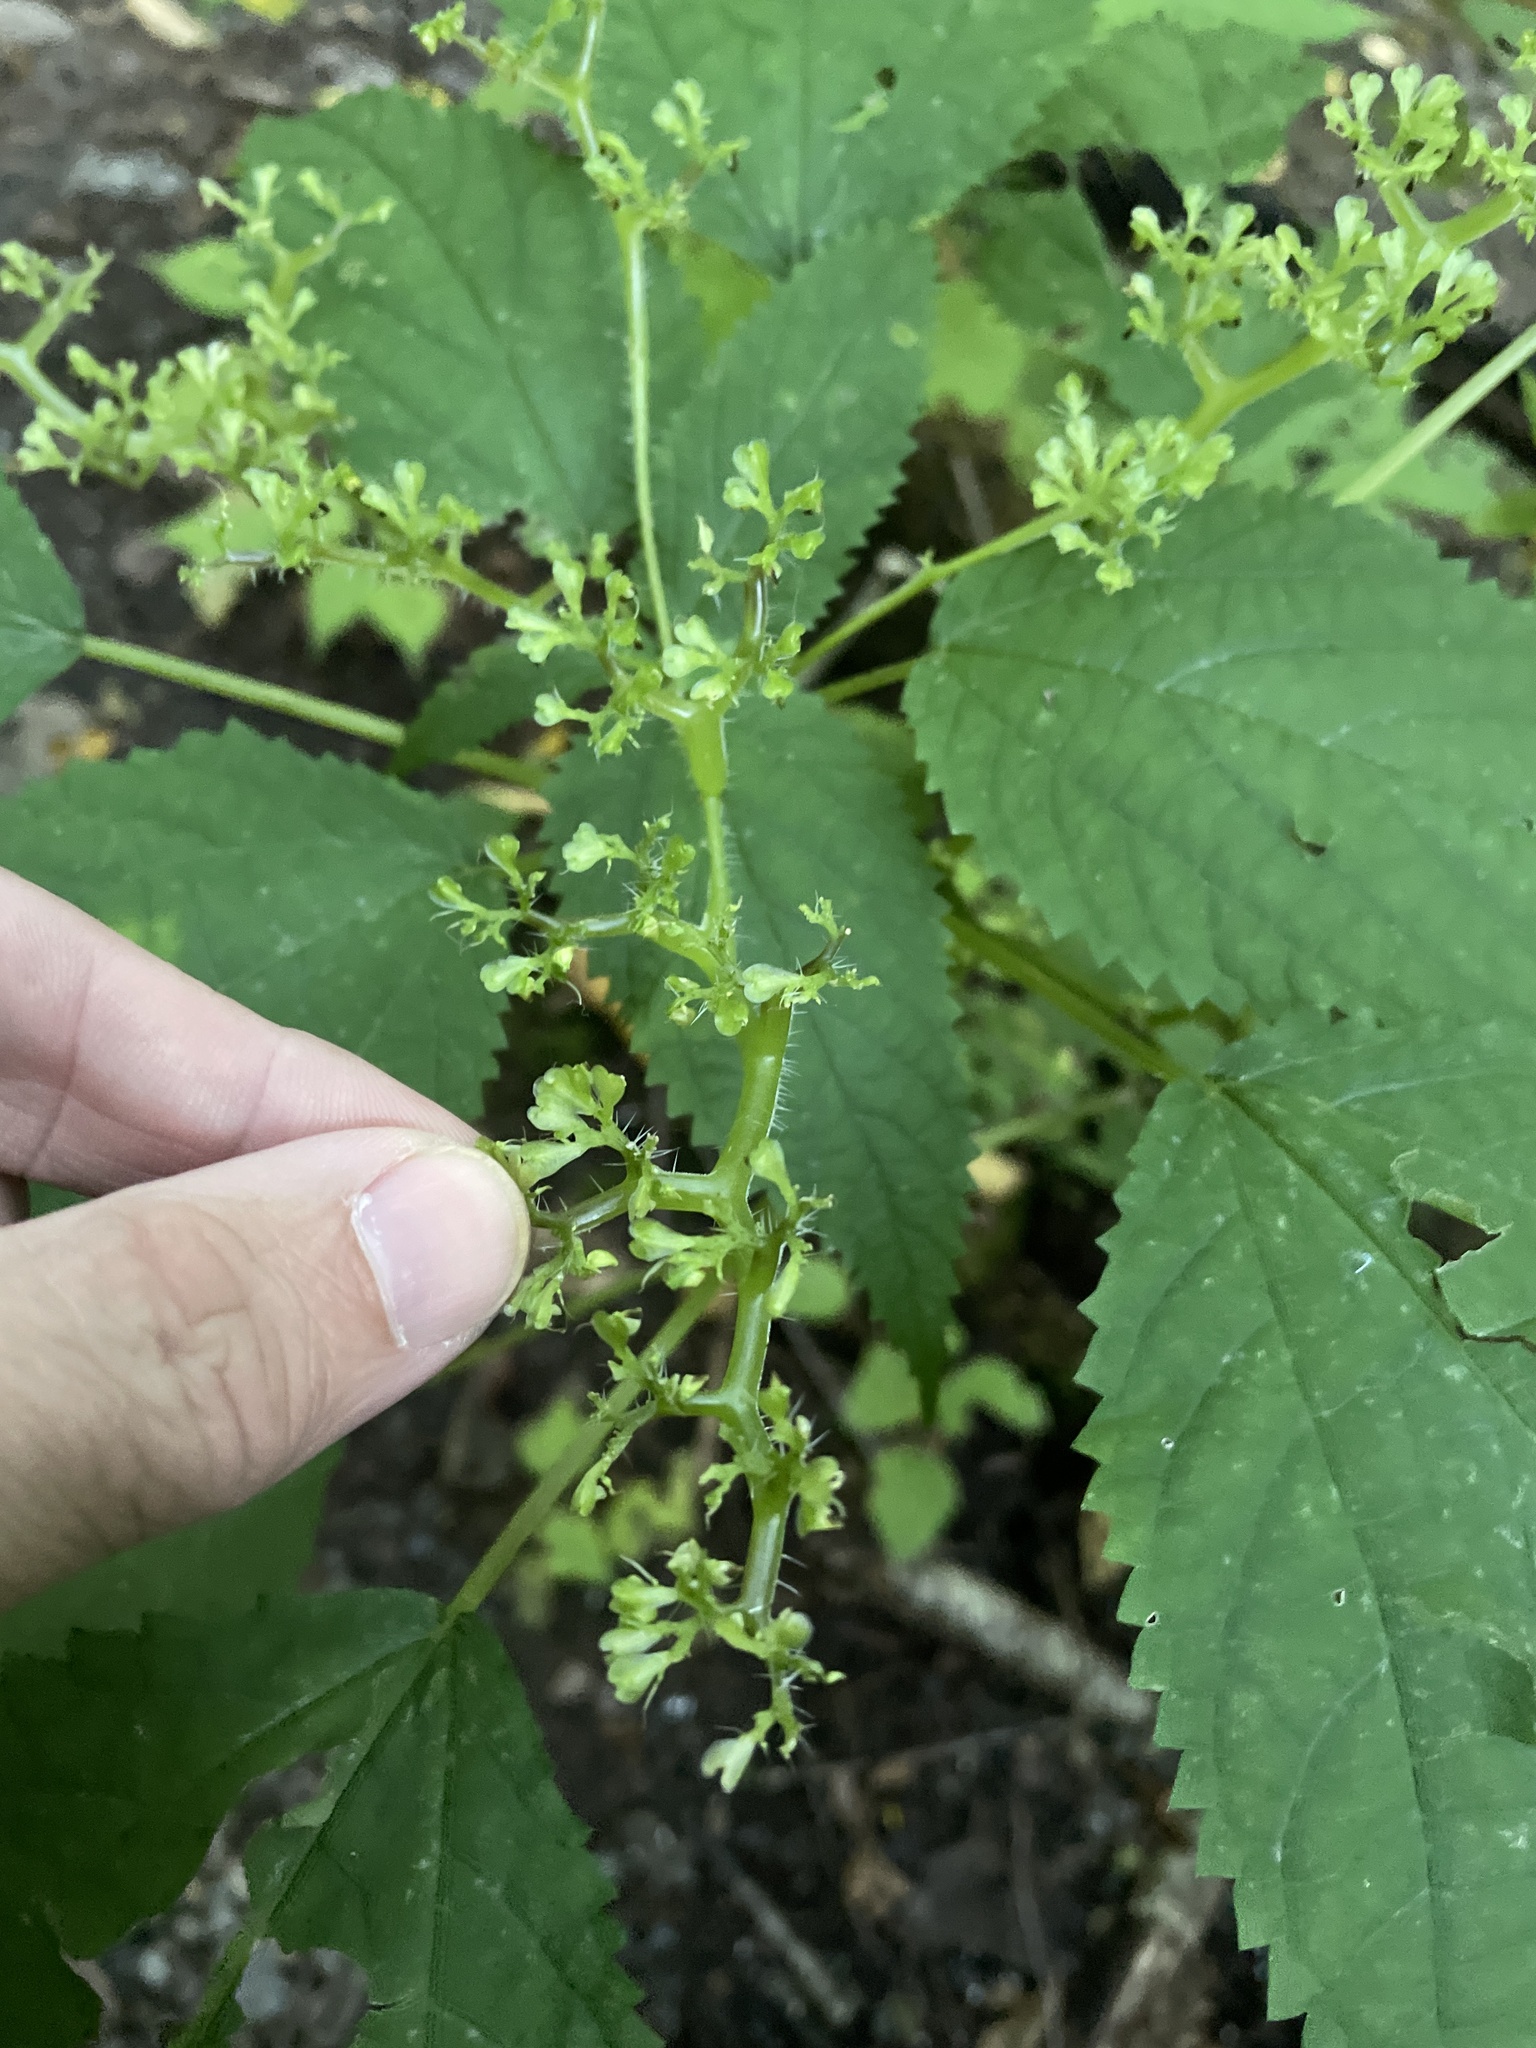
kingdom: Plantae
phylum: Tracheophyta
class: Magnoliopsida
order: Rosales
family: Urticaceae
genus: Laportea
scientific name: Laportea canadensis
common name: Canada nettle
